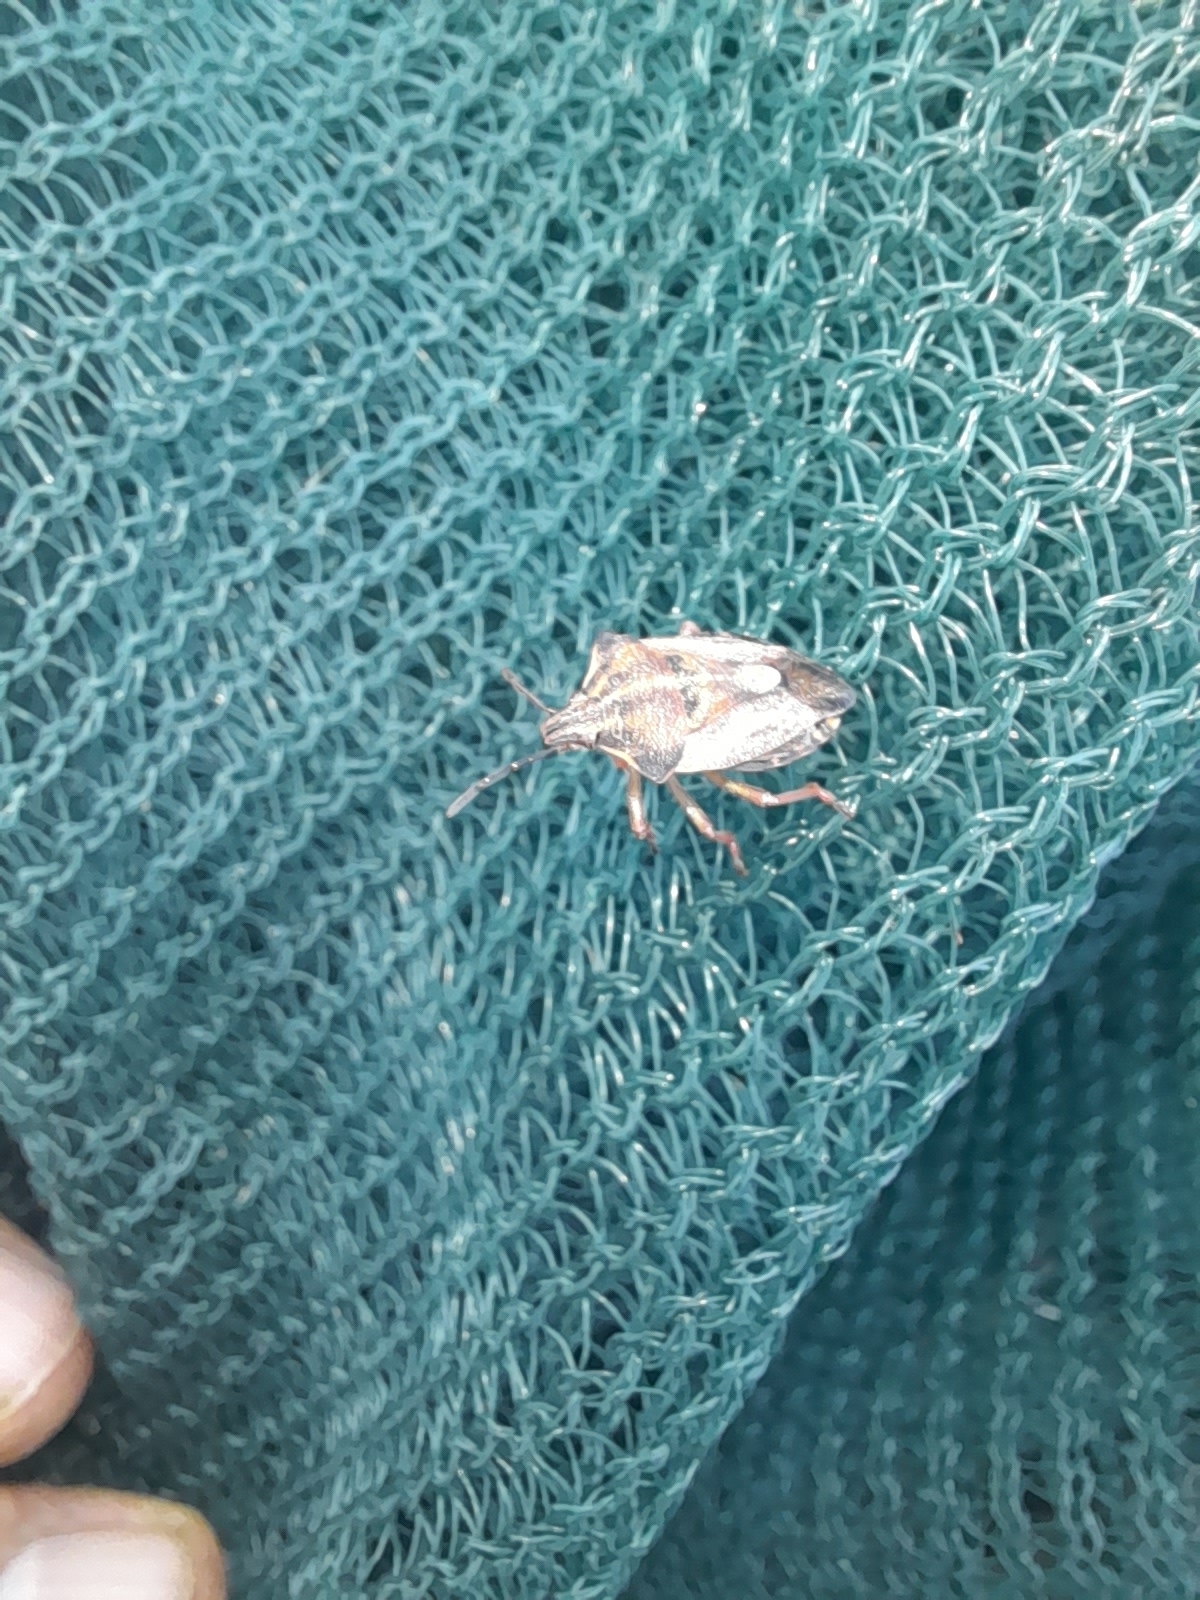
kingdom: Animalia
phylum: Arthropoda
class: Insecta
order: Hemiptera
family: Pentatomidae
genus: Carpocoris
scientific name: Carpocoris mediterraneus
